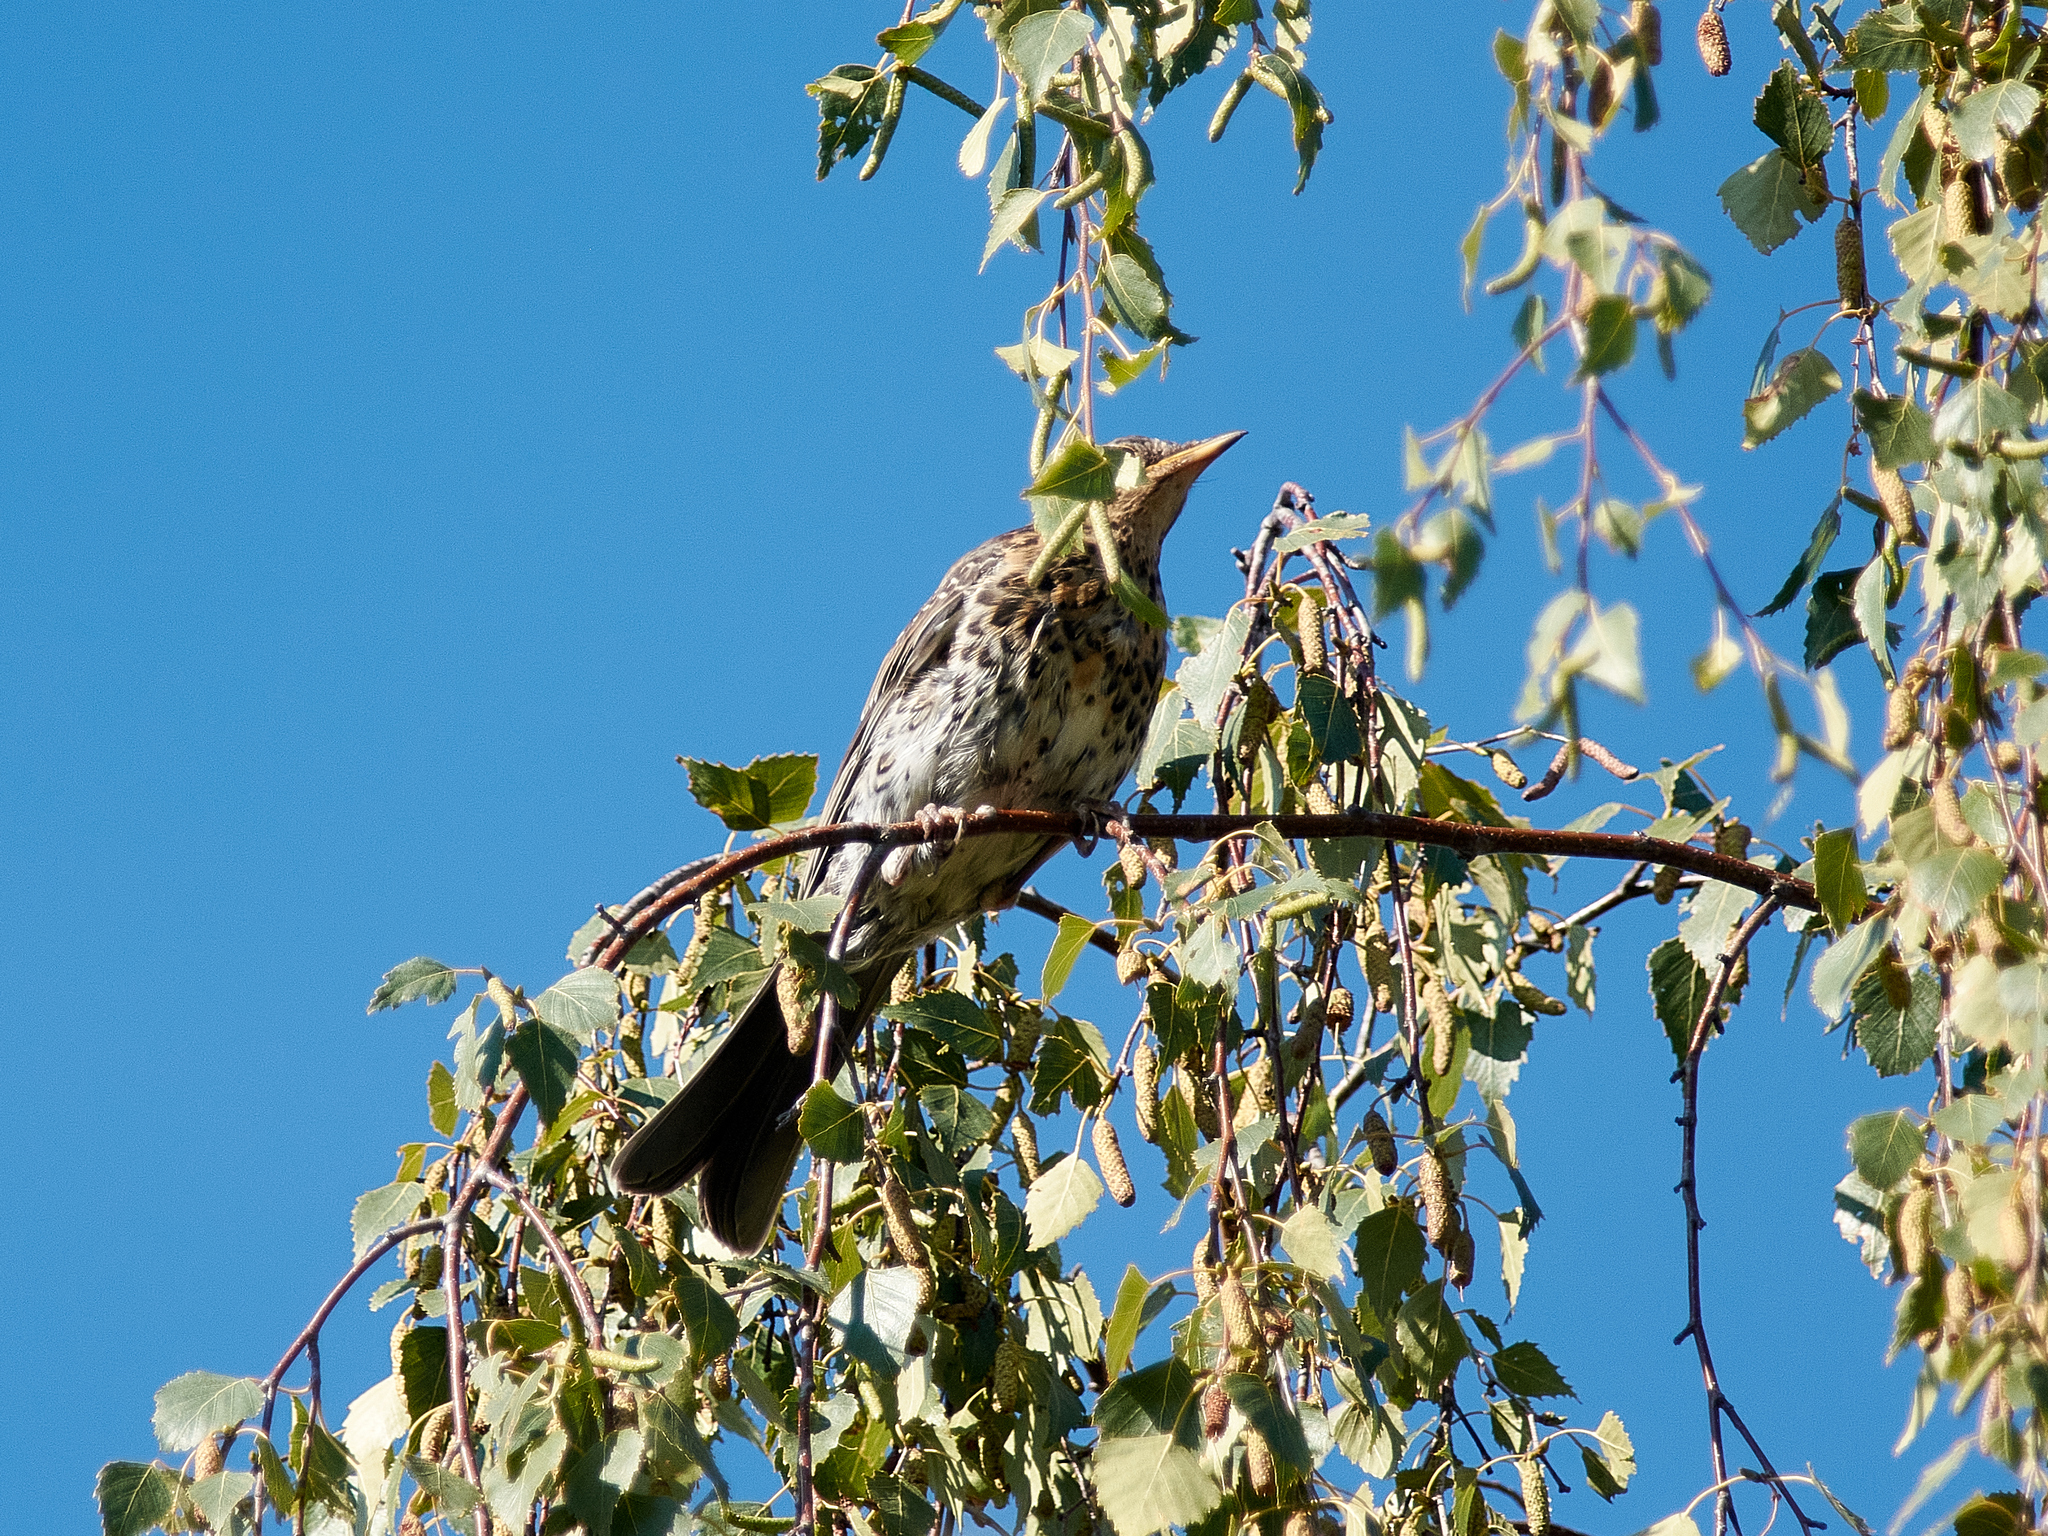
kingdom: Animalia
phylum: Chordata
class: Aves
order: Passeriformes
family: Turdidae
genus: Turdus
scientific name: Turdus pilaris
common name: Fieldfare
